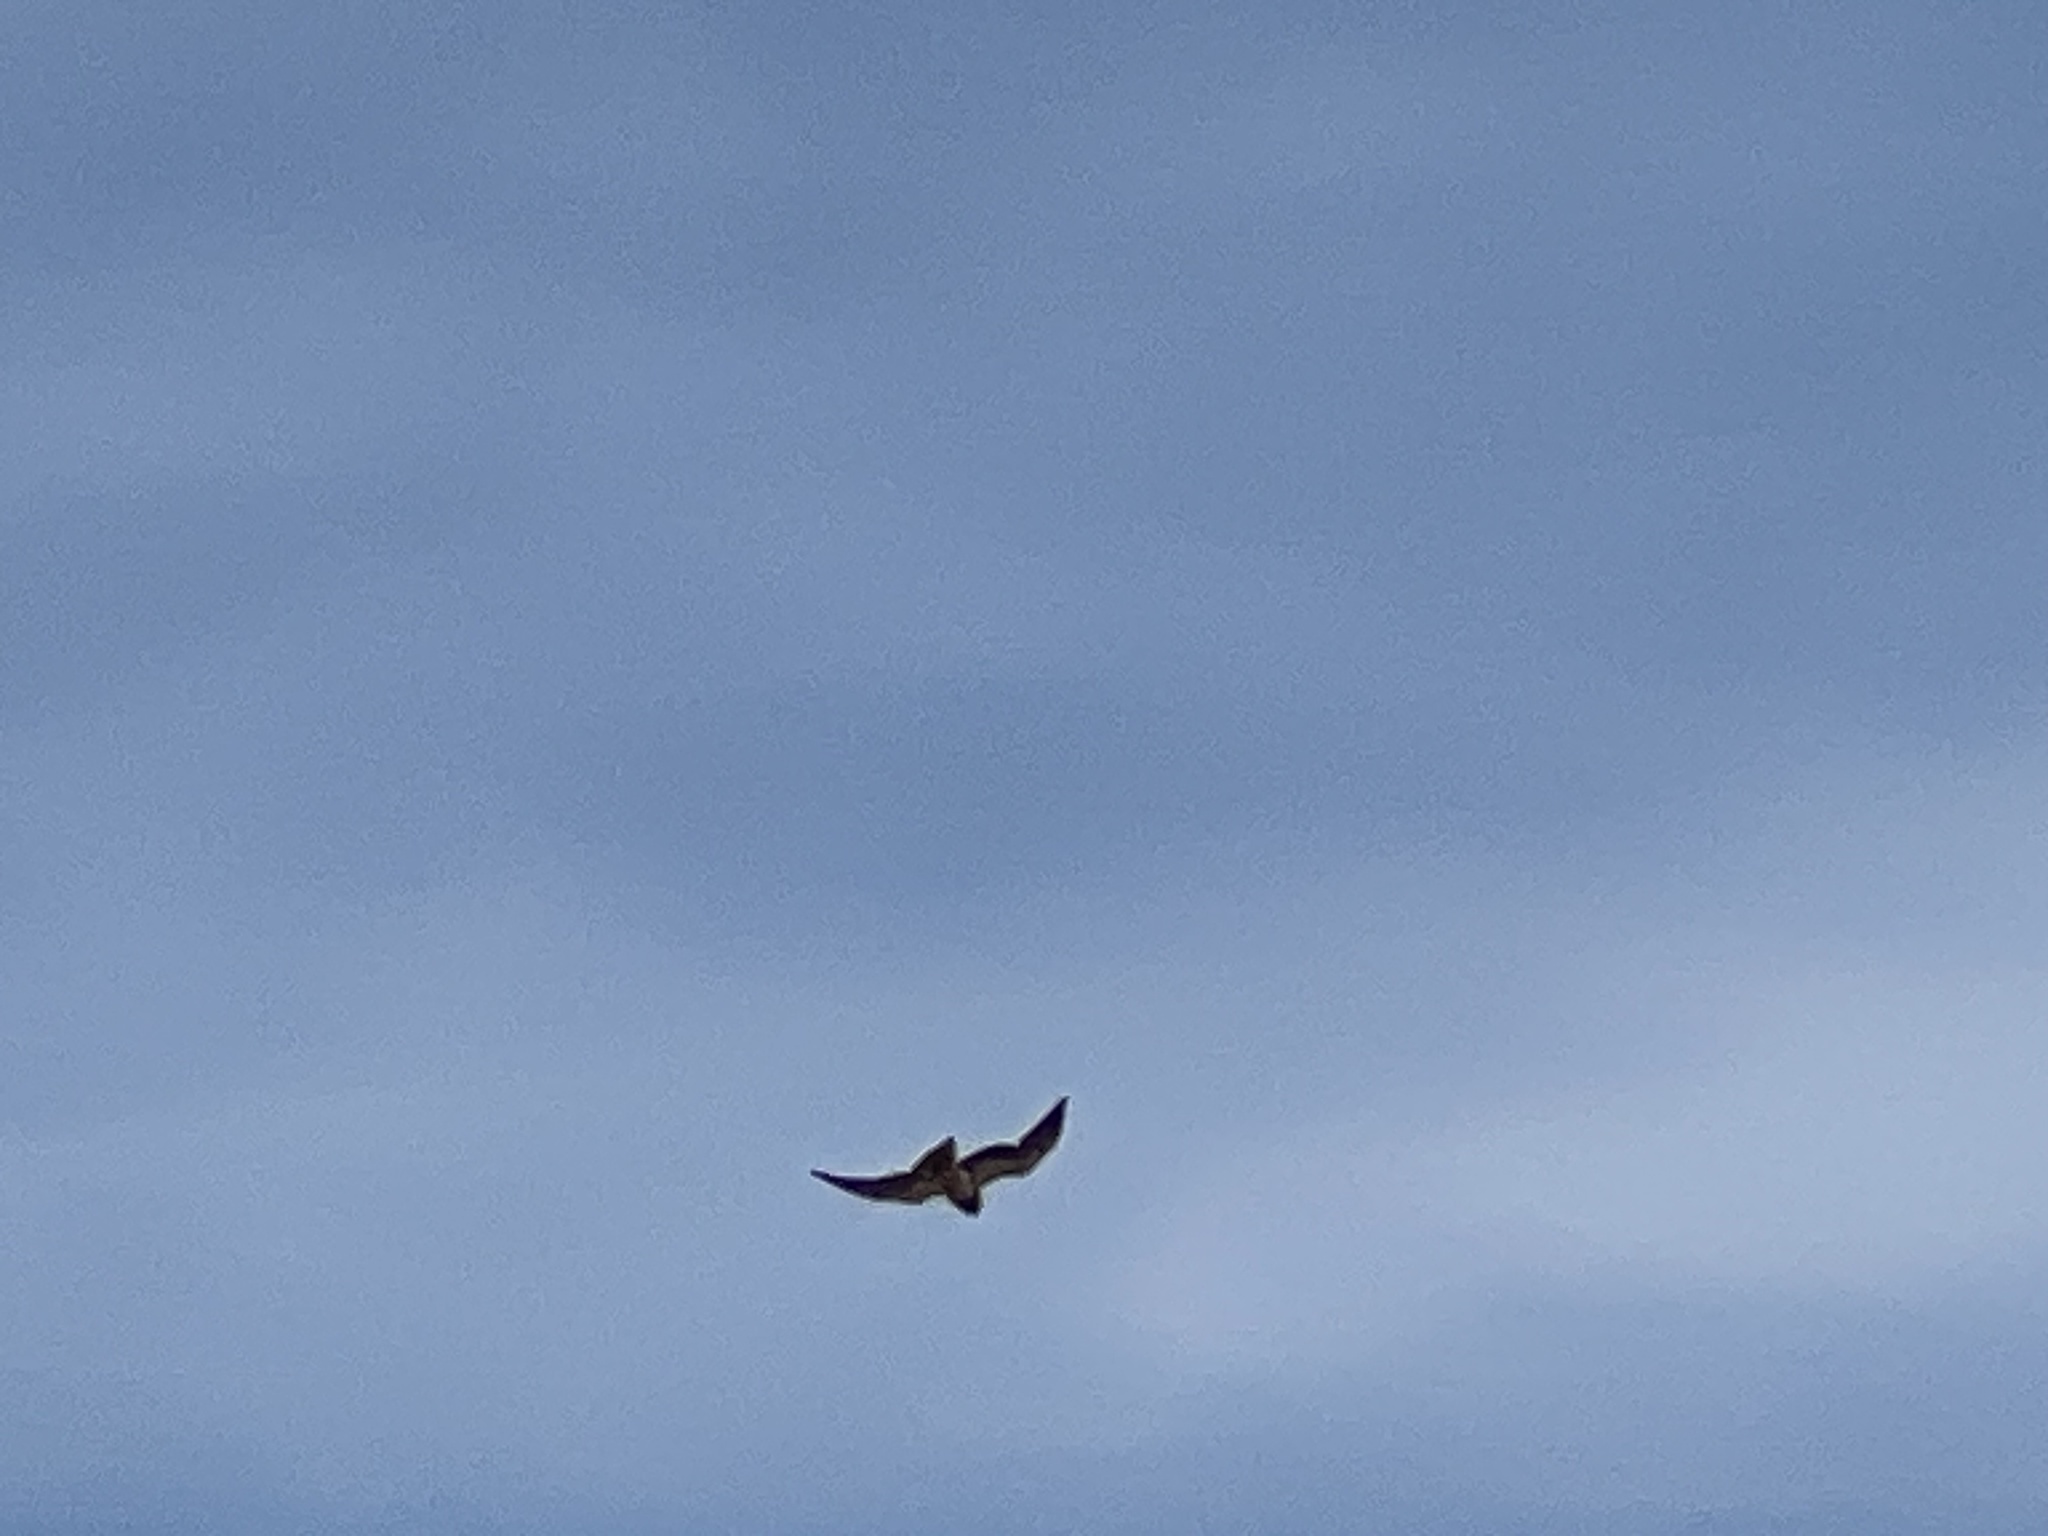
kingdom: Animalia
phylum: Chordata
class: Aves
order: Accipitriformes
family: Accipitridae
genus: Buteo
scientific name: Buteo swainsoni
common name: Swainson's hawk
